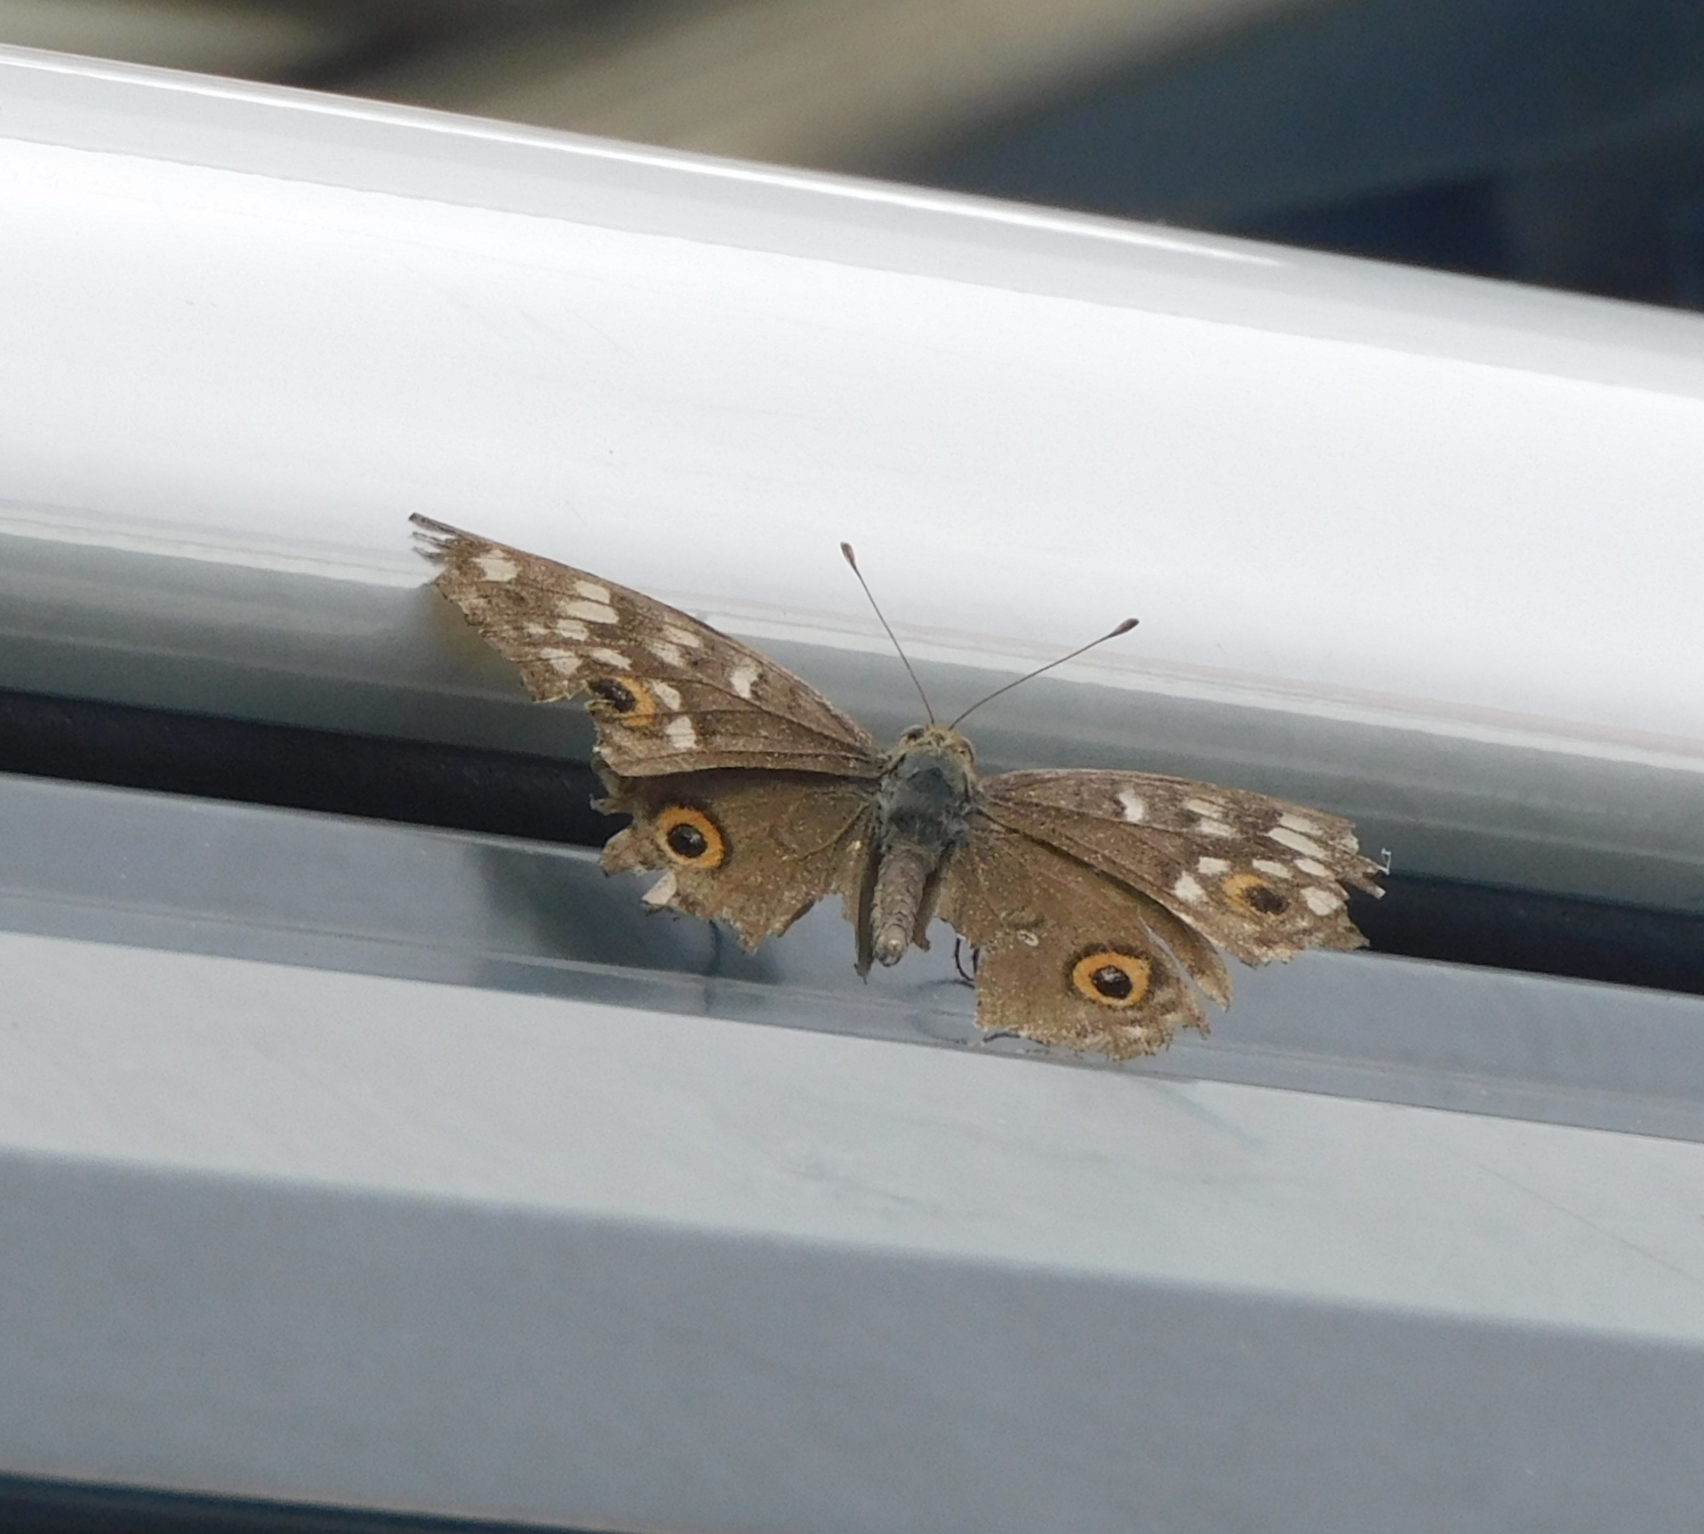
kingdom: Animalia
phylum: Arthropoda
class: Insecta
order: Lepidoptera
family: Nymphalidae
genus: Junonia
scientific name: Junonia lemonias
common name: Lemon pansy
